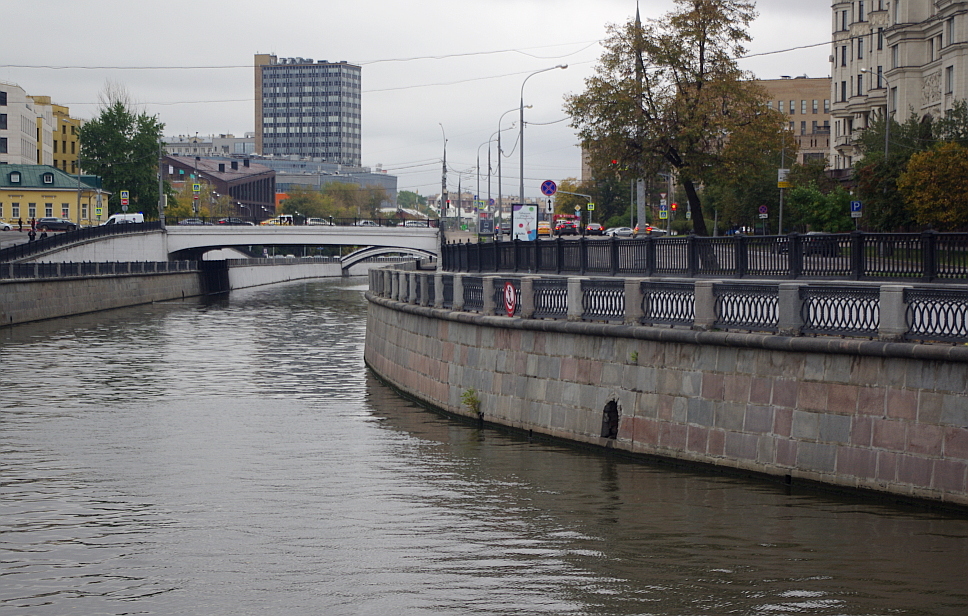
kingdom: Plantae
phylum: Tracheophyta
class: Magnoliopsida
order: Lamiales
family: Oleaceae
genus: Fraxinus
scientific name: Fraxinus pennsylvanica
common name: Green ash
